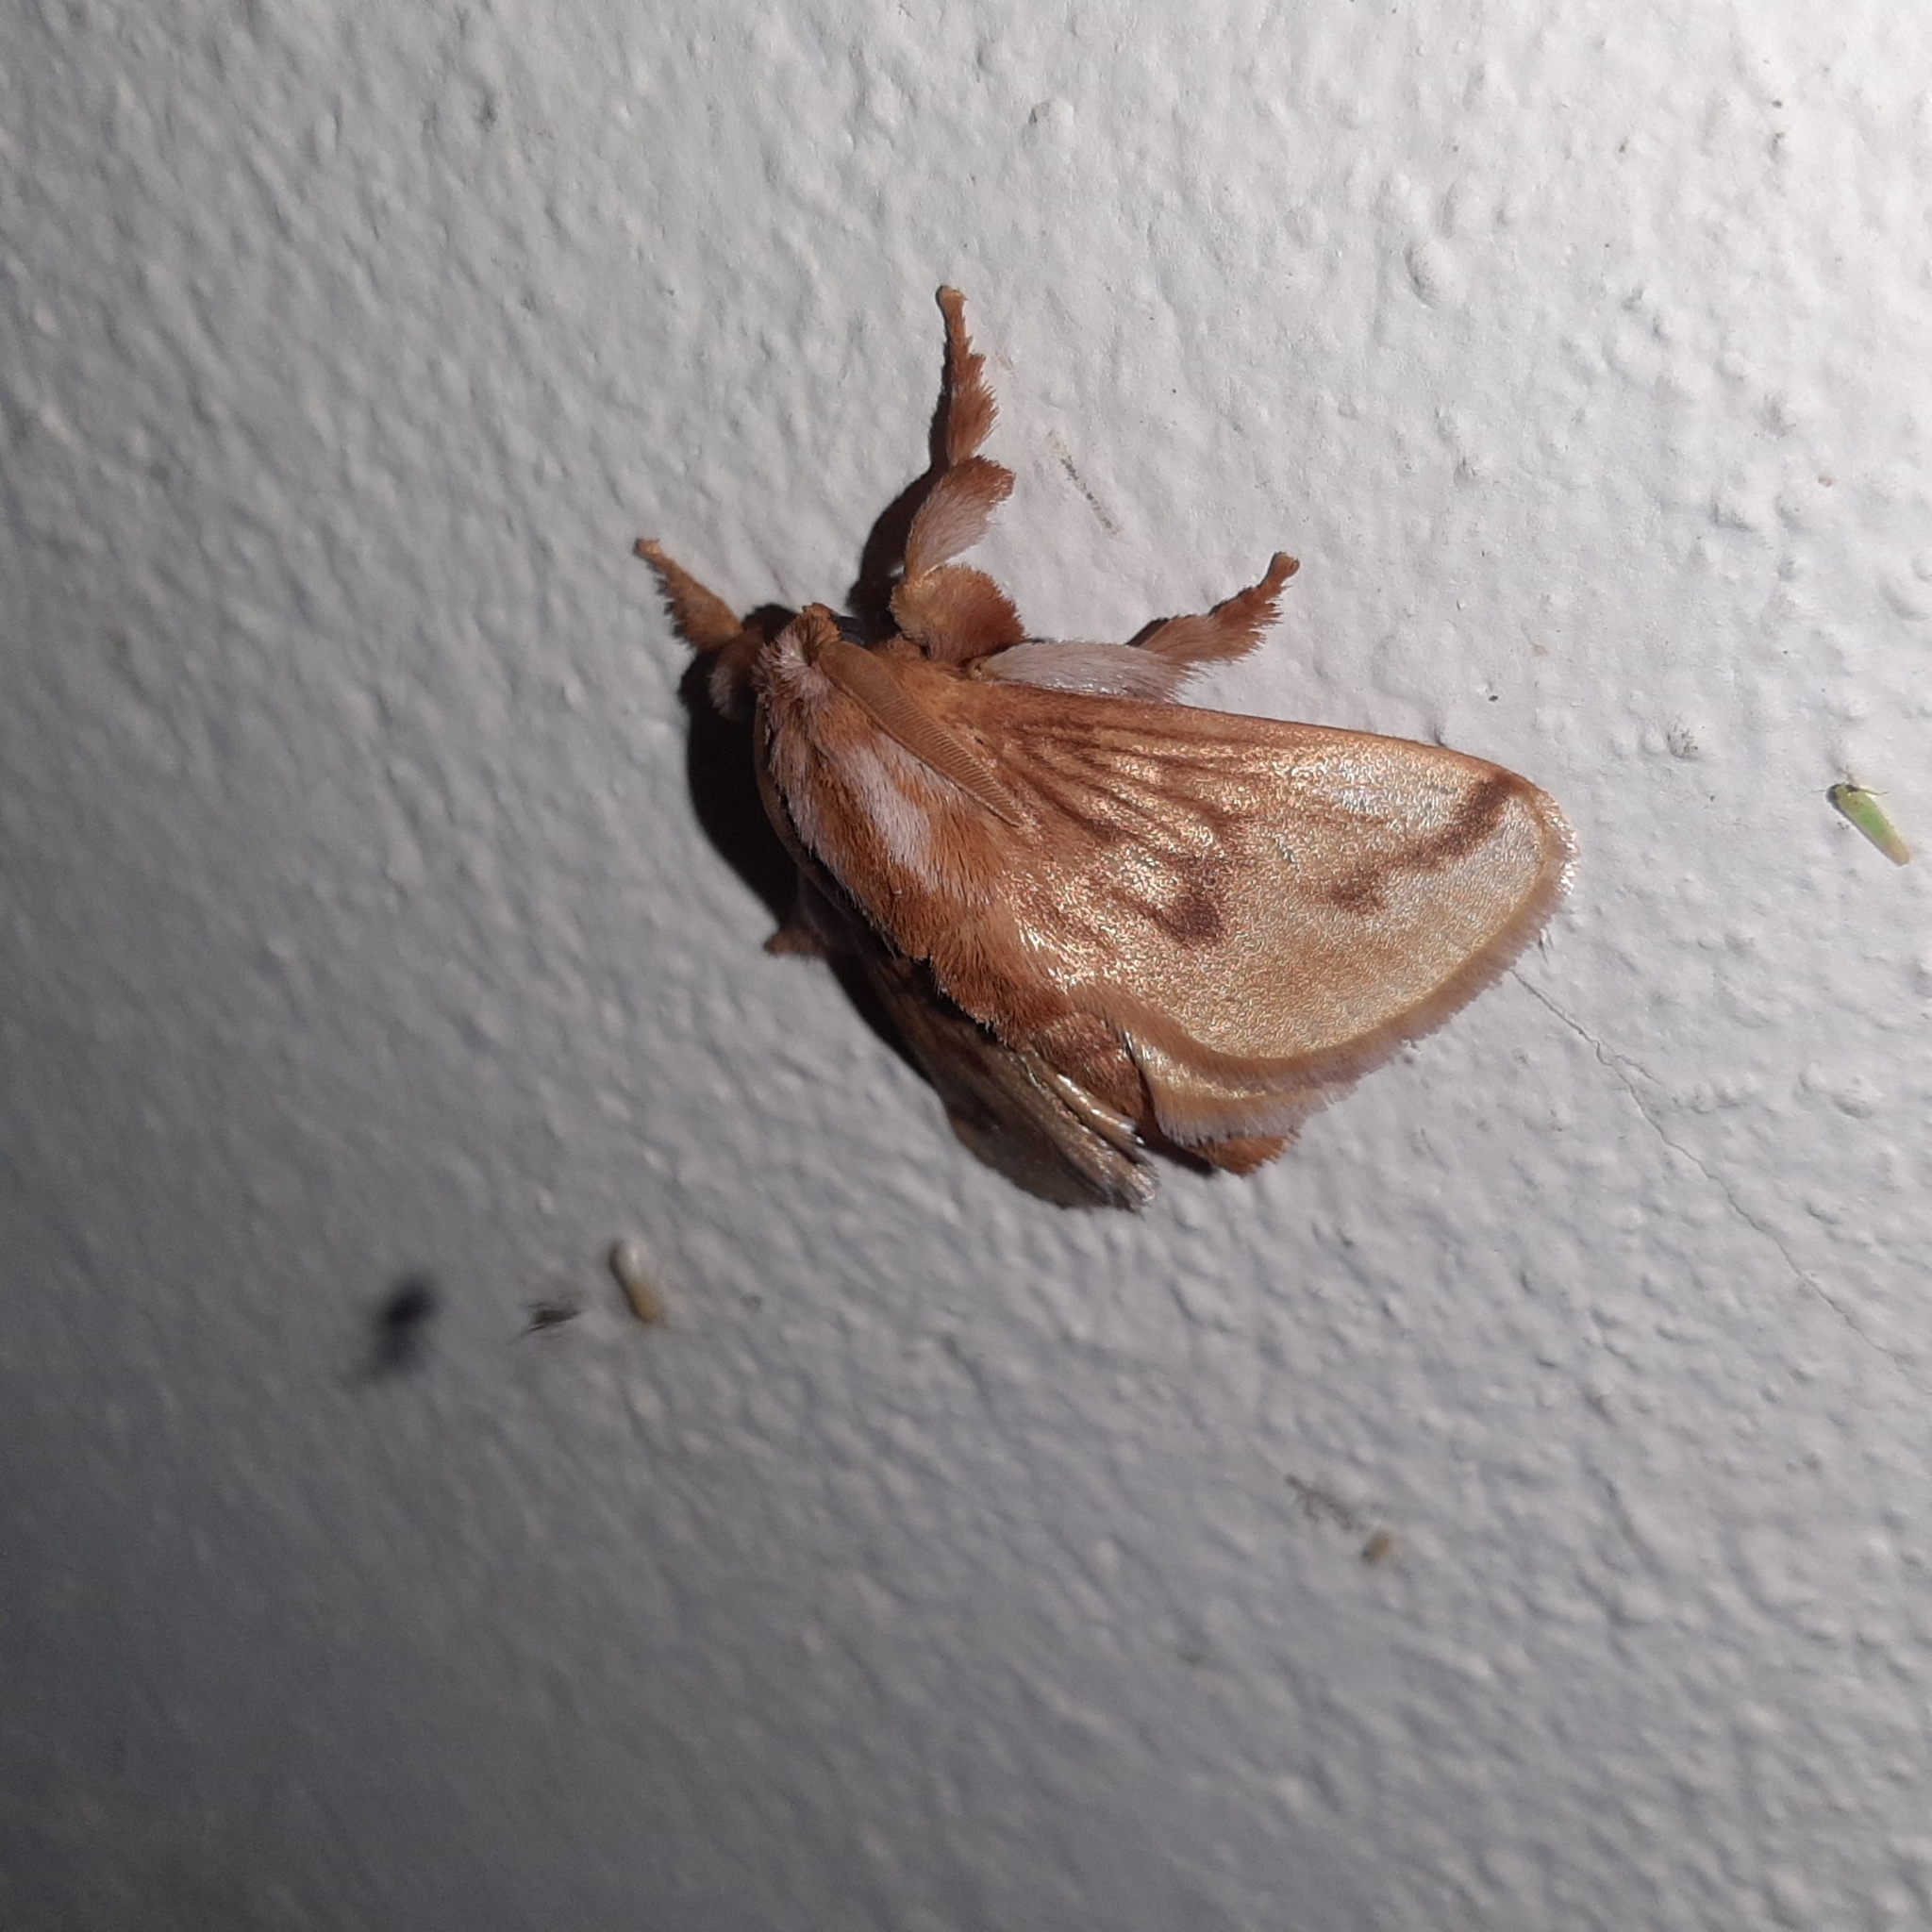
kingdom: Animalia
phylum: Arthropoda
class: Insecta
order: Lepidoptera
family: Limacodidae
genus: Perola
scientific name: Perola sericea
